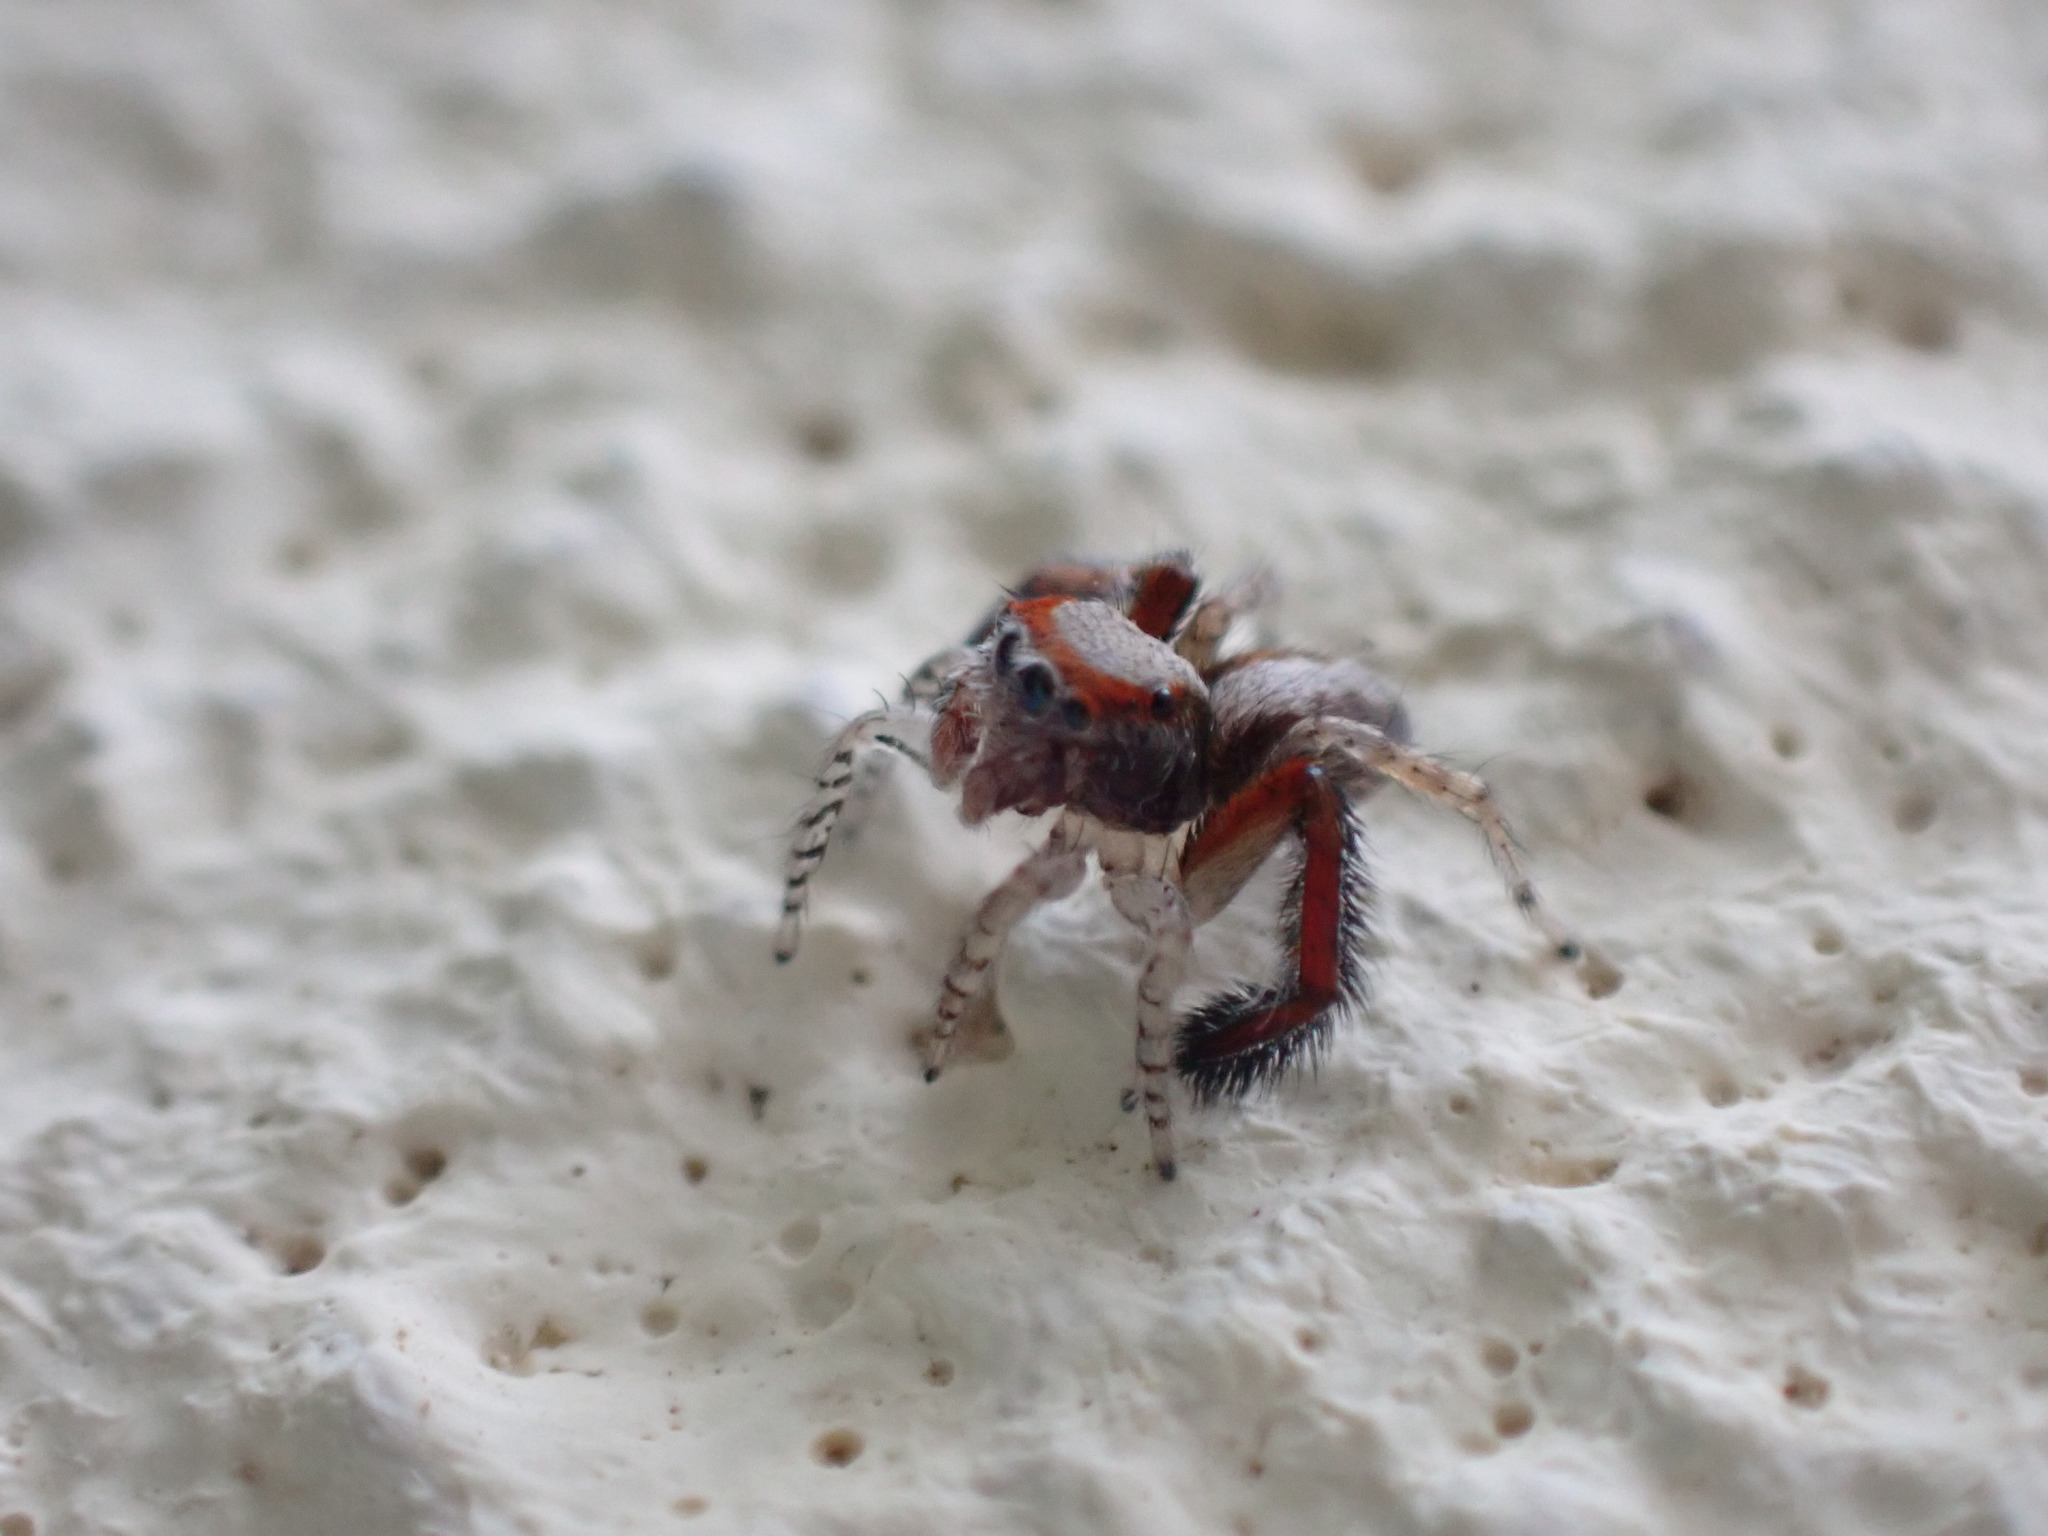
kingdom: Animalia
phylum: Arthropoda
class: Arachnida
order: Araneae
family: Salticidae
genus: Saitis
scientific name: Saitis barbipes
